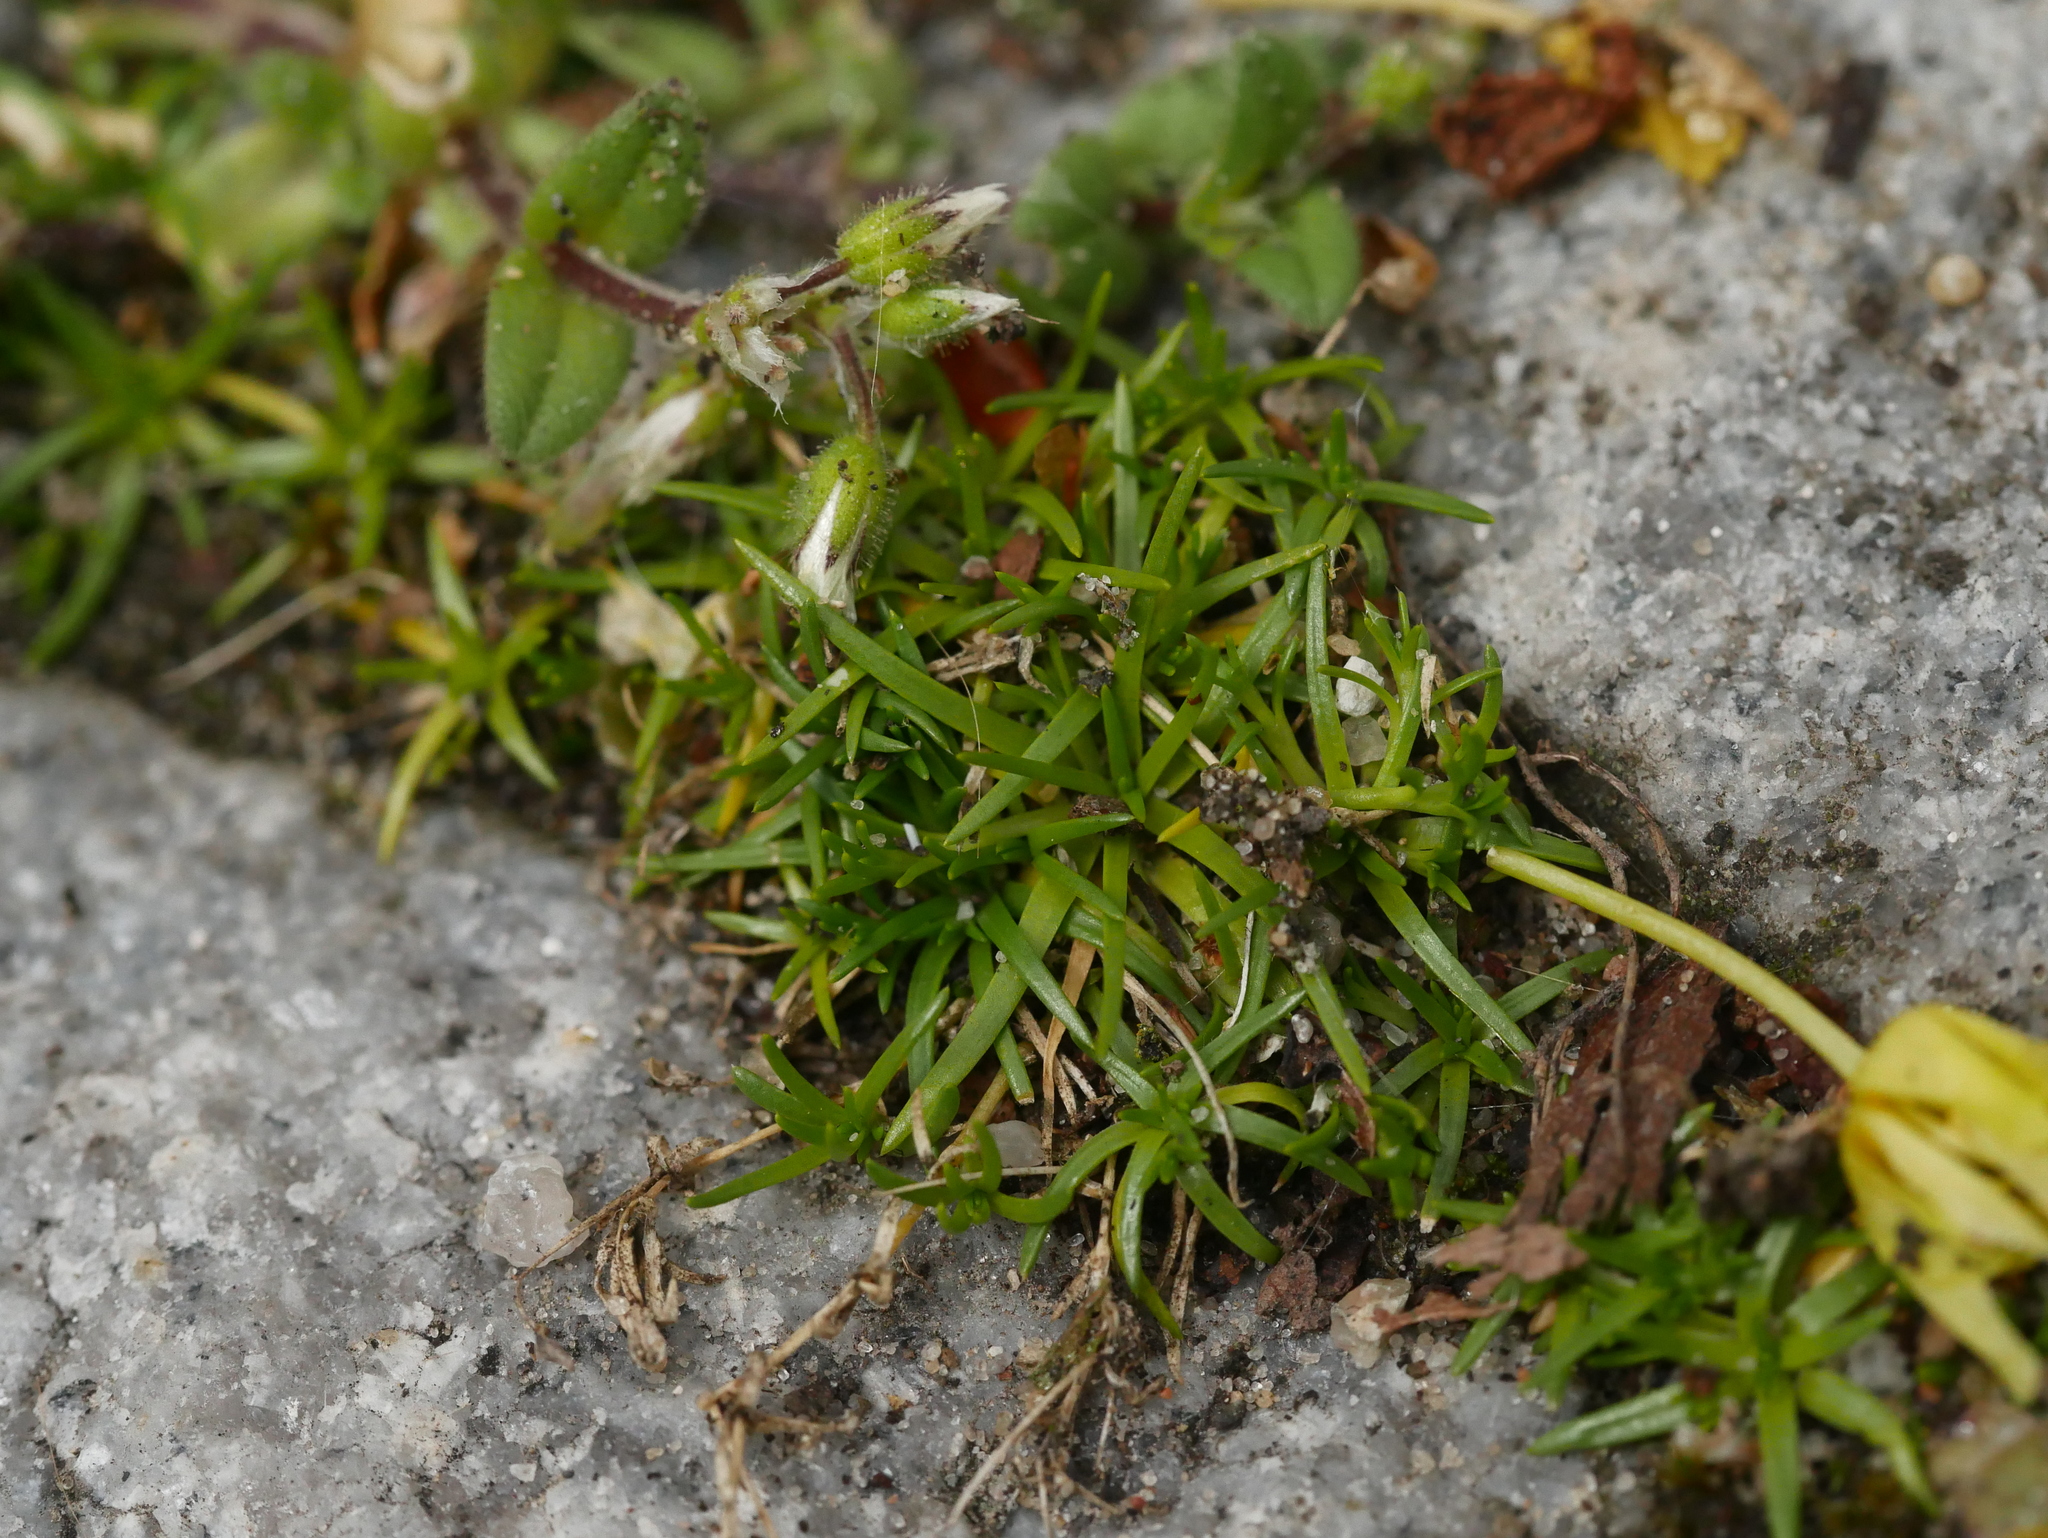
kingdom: Plantae
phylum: Tracheophyta
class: Magnoliopsida
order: Caryophyllales
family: Caryophyllaceae
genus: Sagina
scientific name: Sagina procumbens
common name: Procumbent pearlwort
